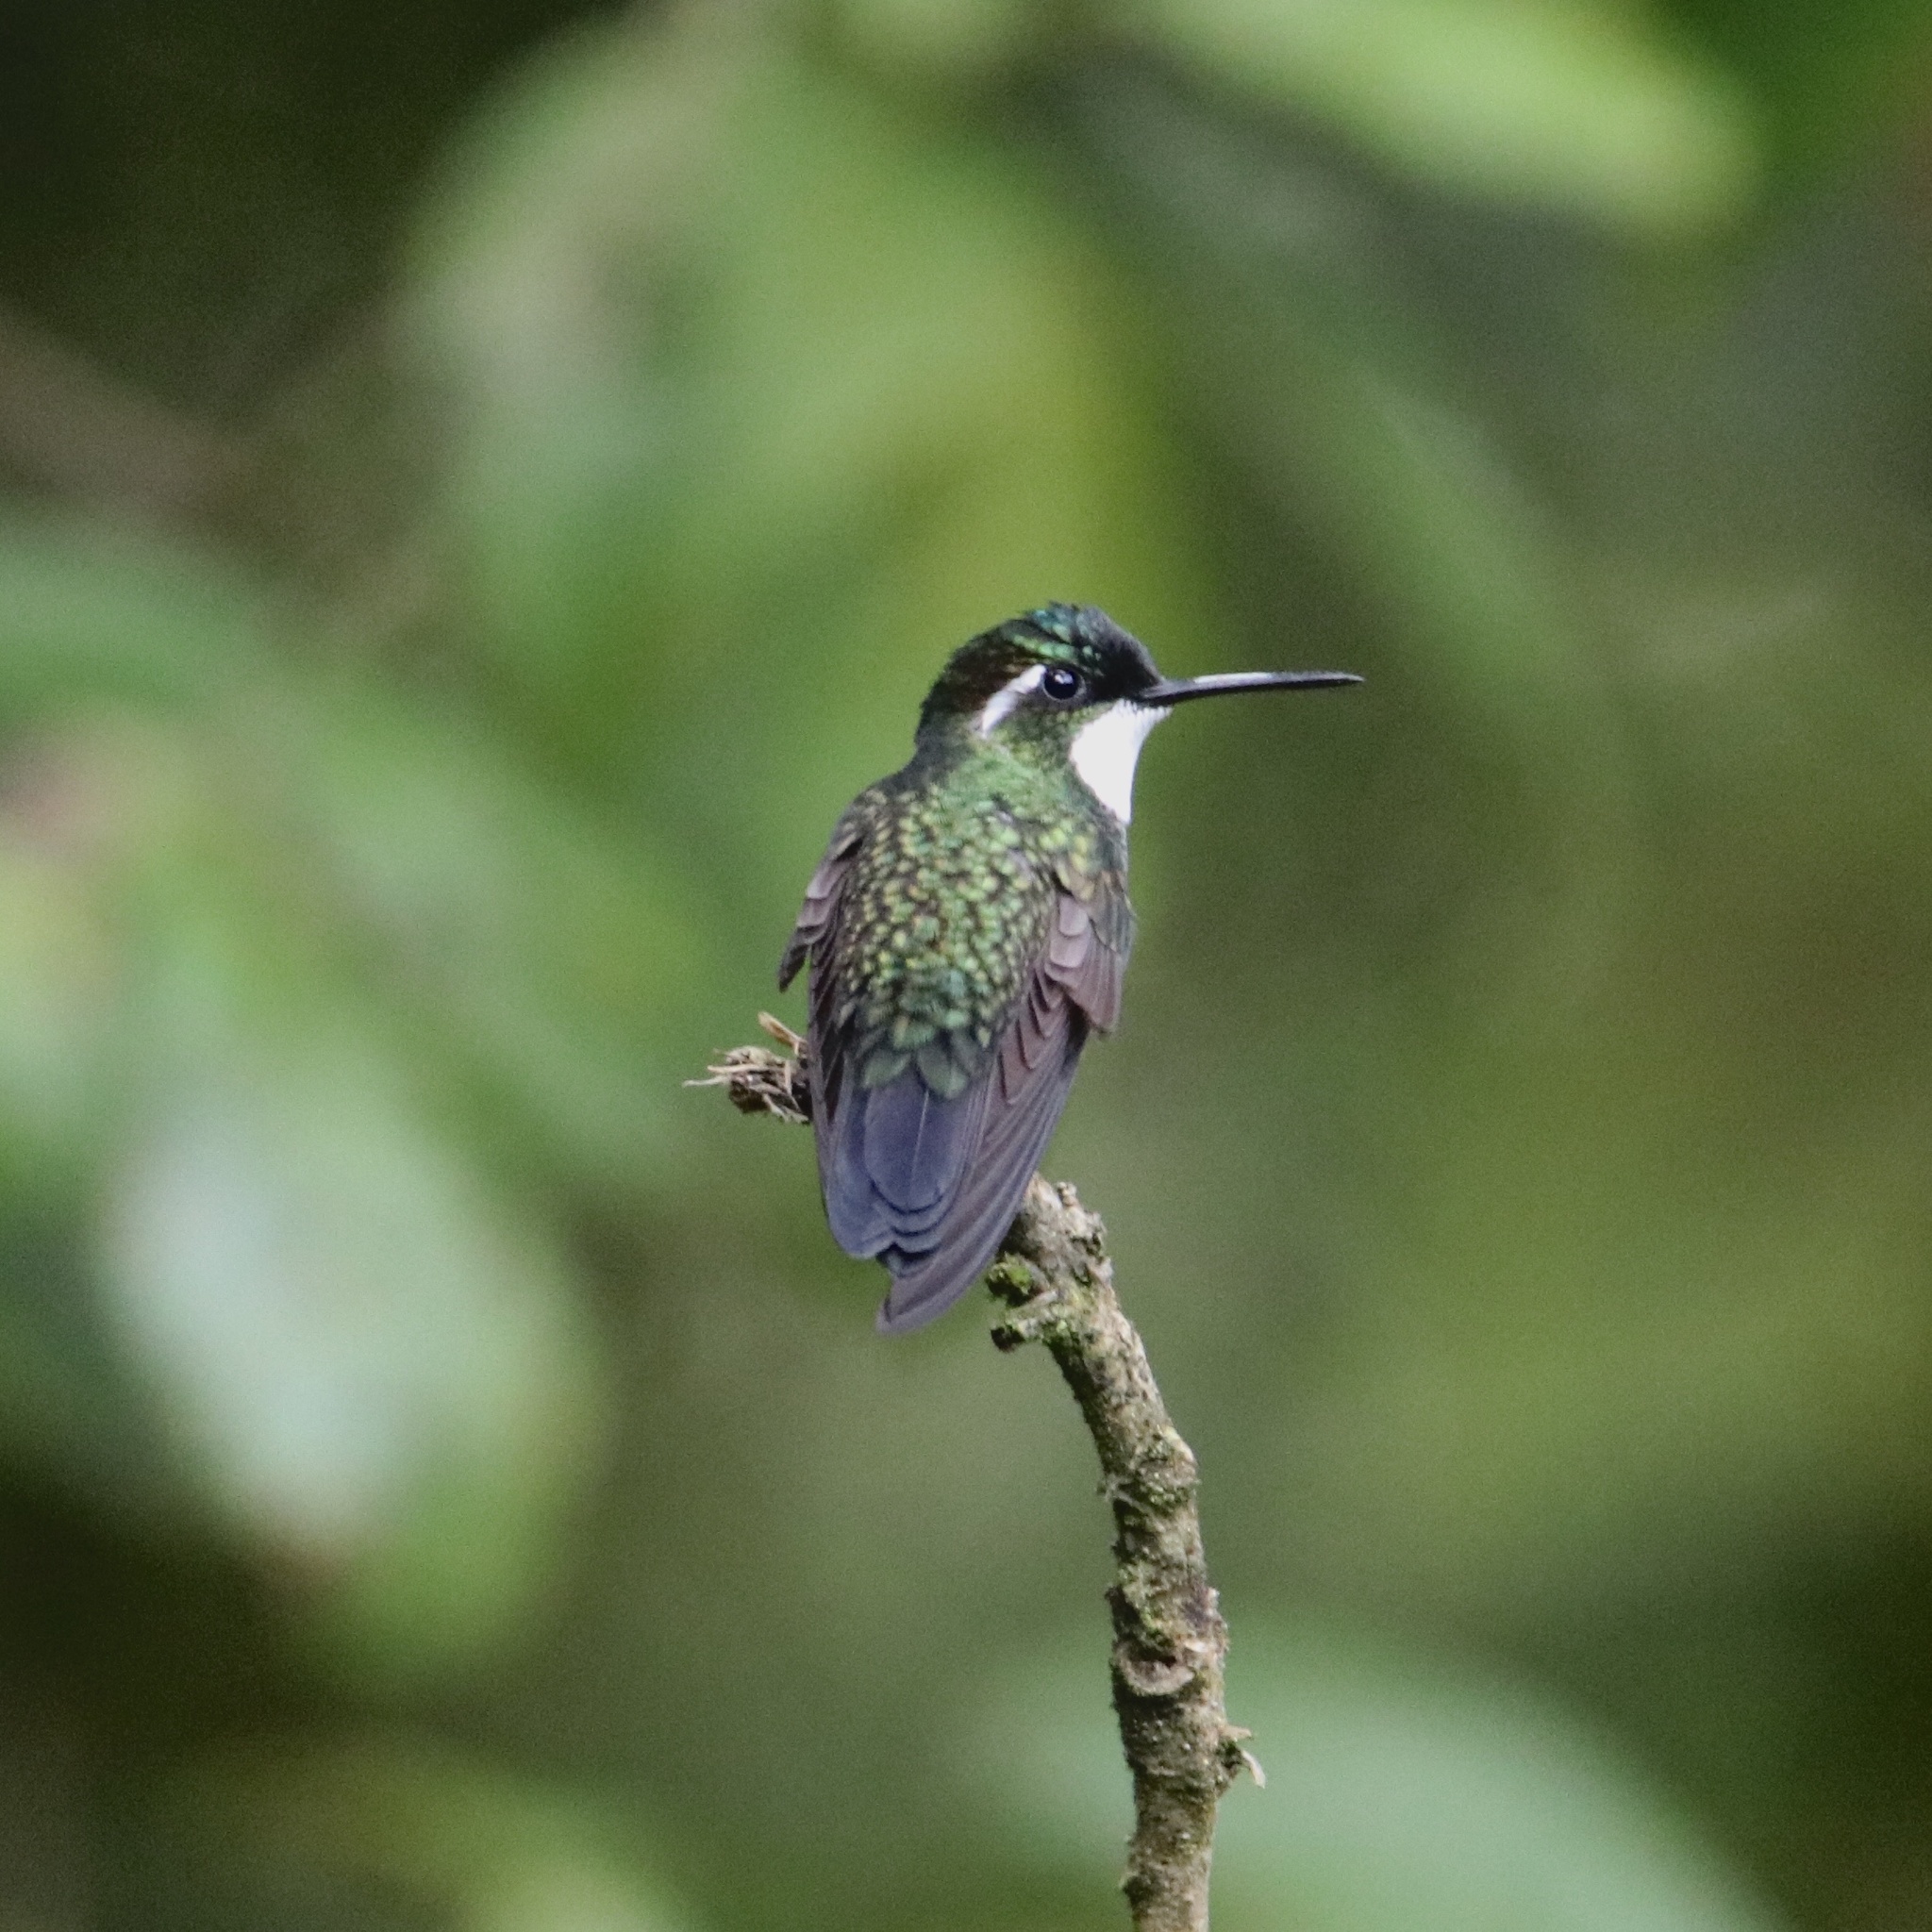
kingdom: Animalia
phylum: Chordata
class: Aves
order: Apodiformes
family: Trochilidae
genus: Lampornis
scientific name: Lampornis castaneoventris
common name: White-throated mountain-gem
